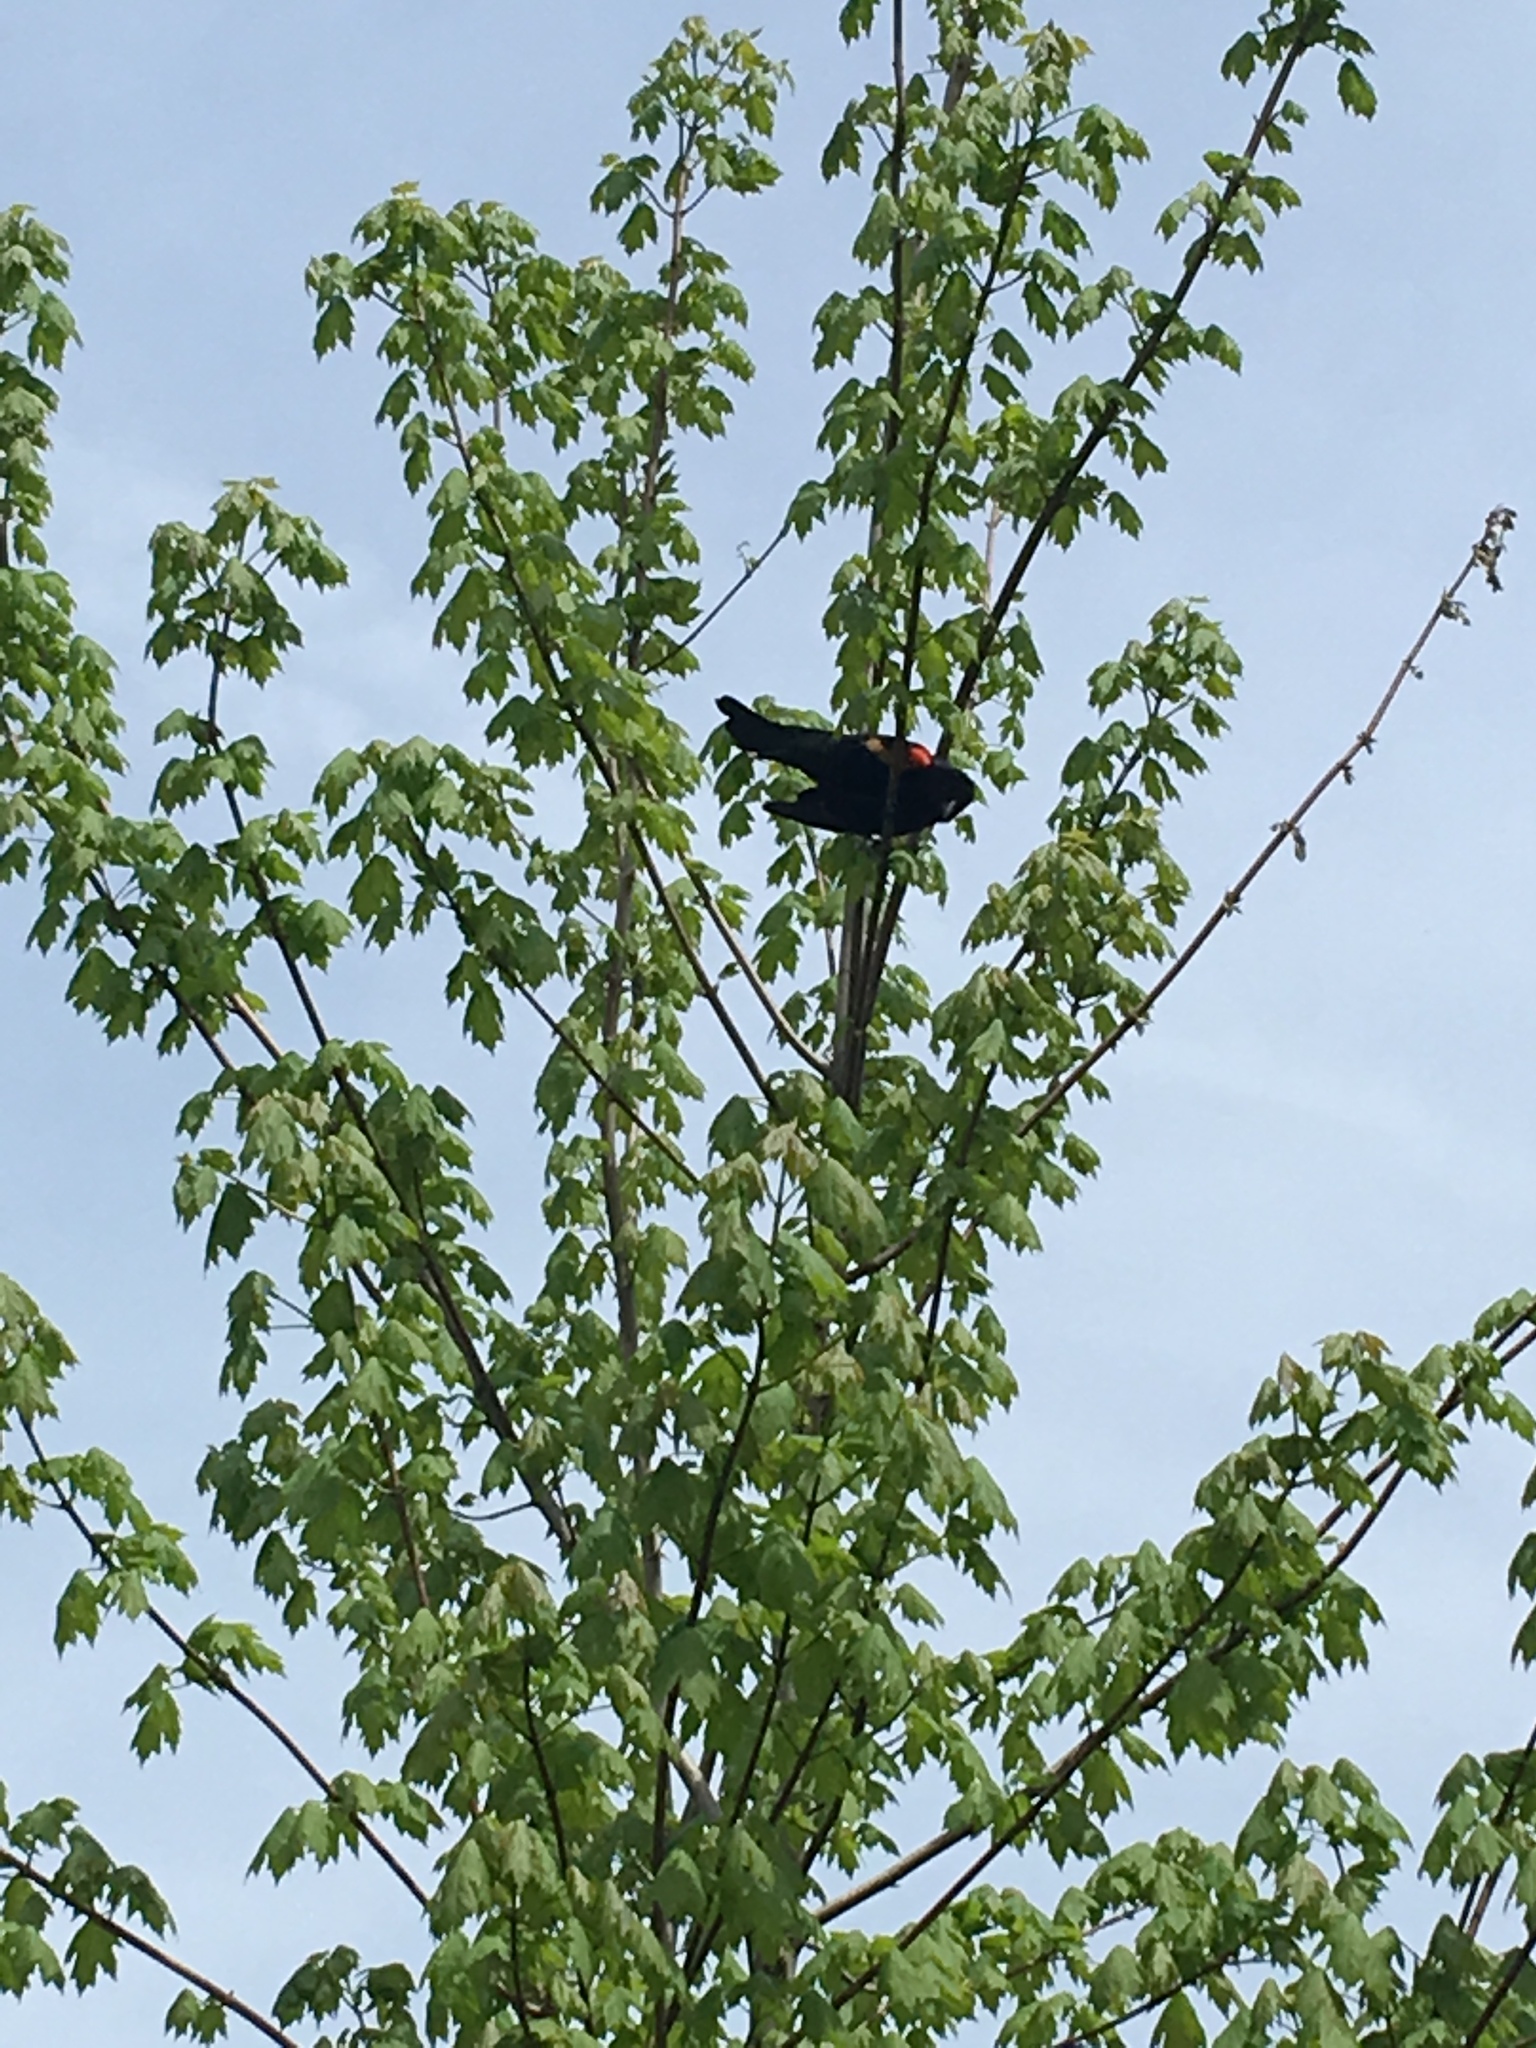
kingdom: Animalia
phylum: Chordata
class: Aves
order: Passeriformes
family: Icteridae
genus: Agelaius
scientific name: Agelaius phoeniceus
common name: Red-winged blackbird
